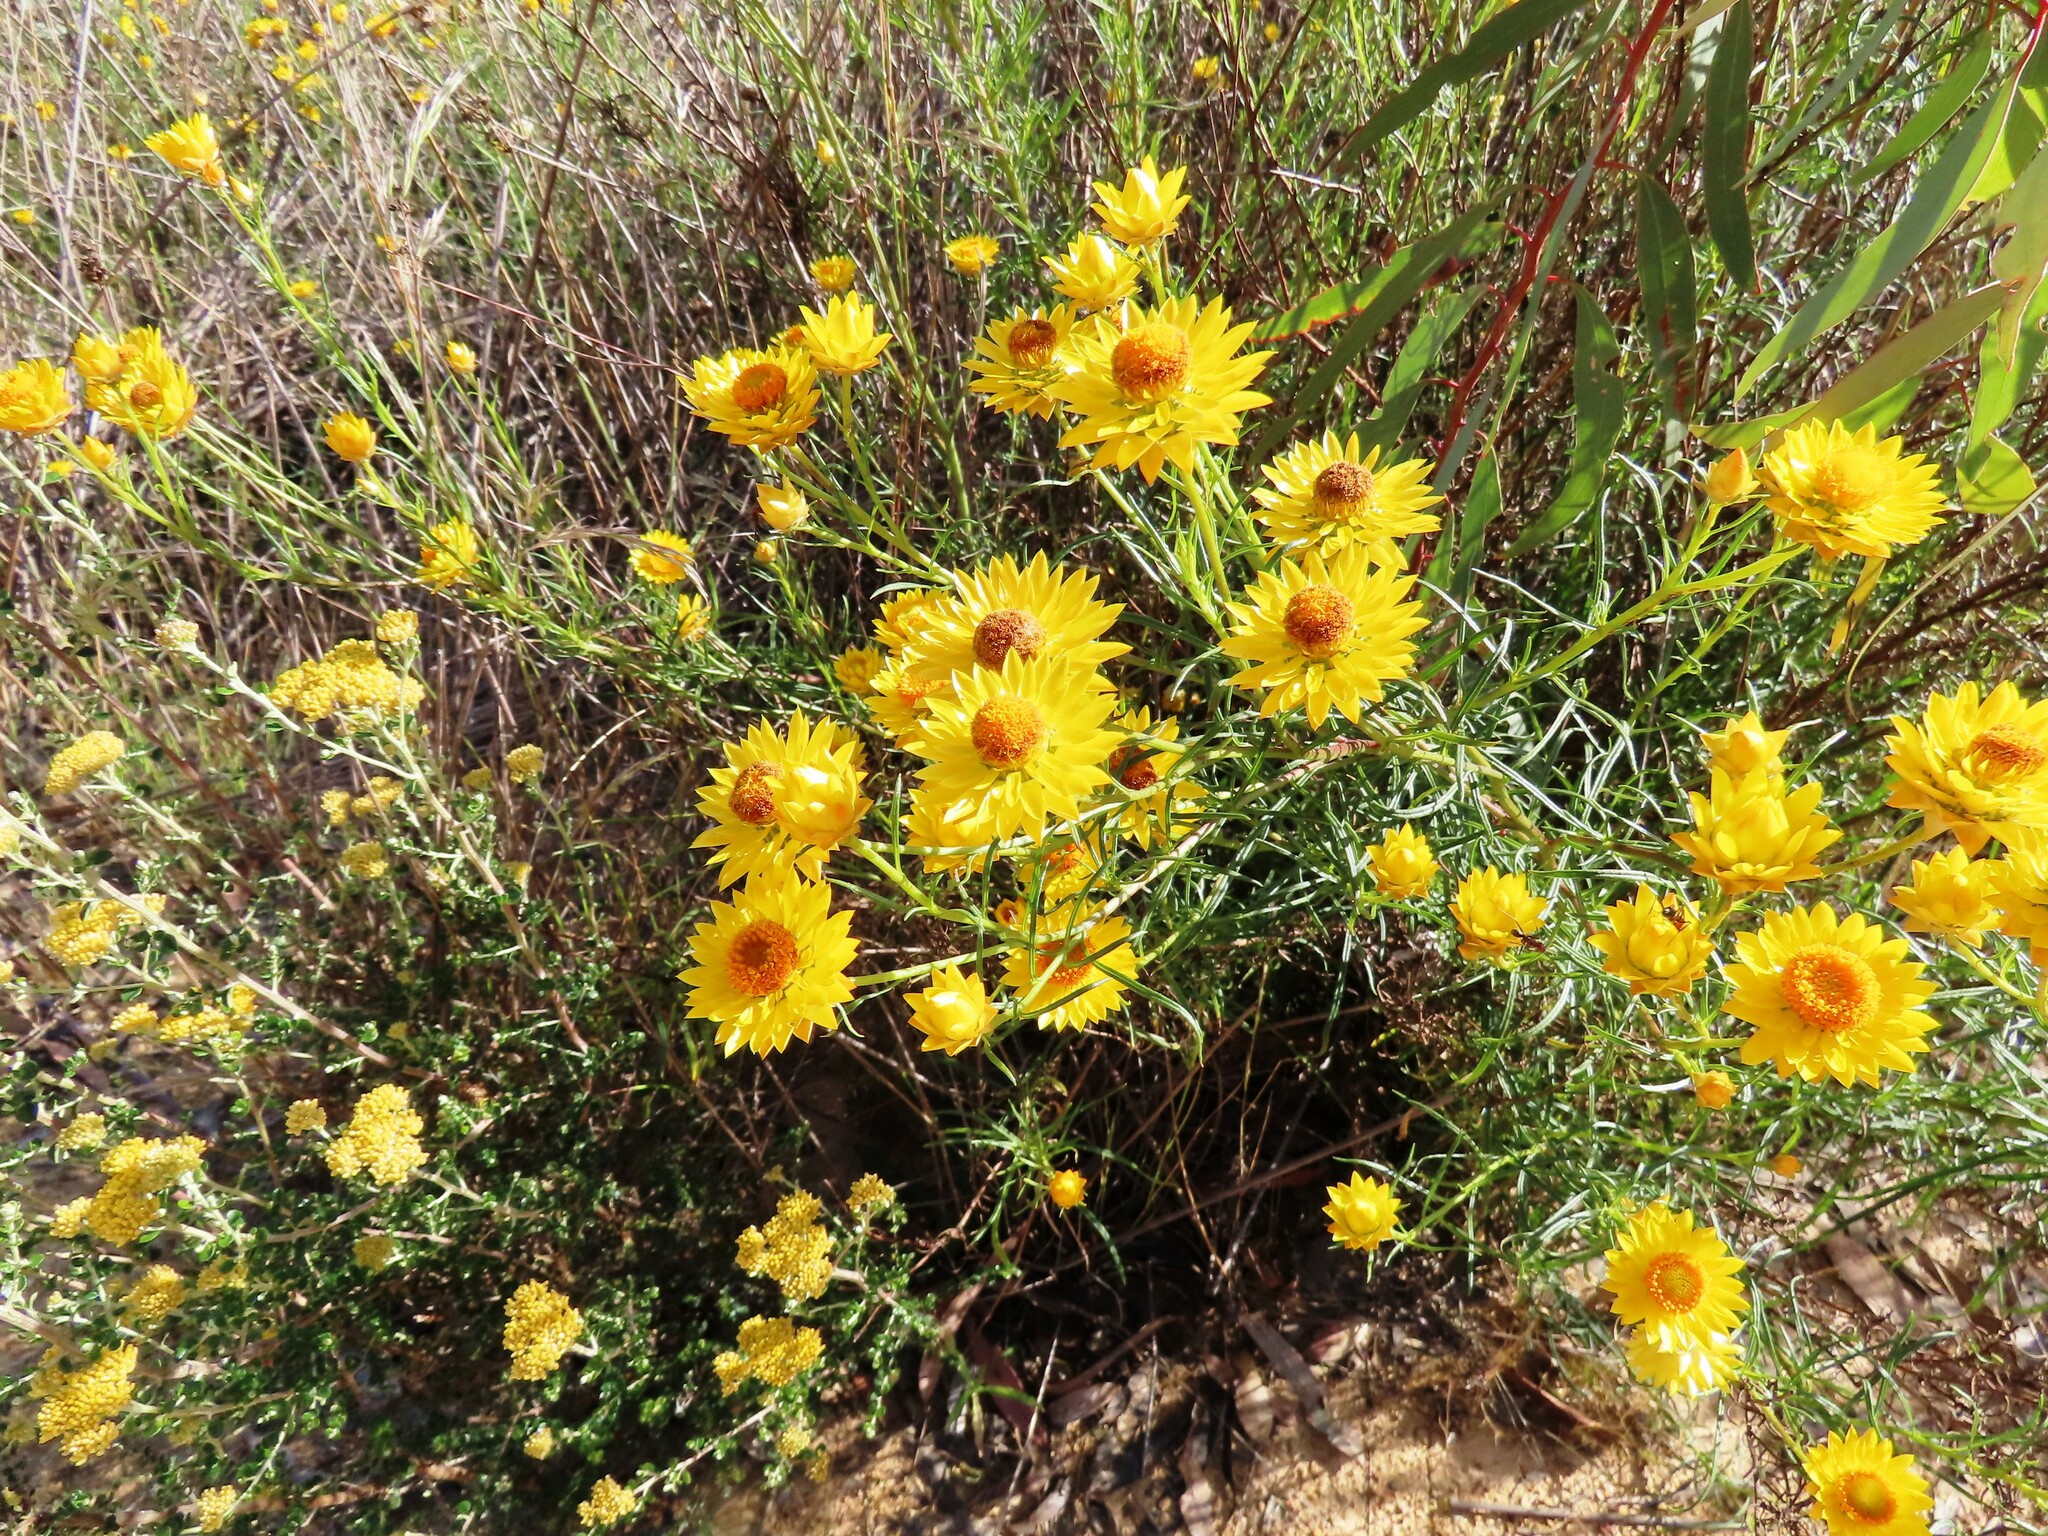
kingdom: Plantae
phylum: Tracheophyta
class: Magnoliopsida
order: Asterales
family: Asteraceae
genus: Xerochrysum
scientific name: Xerochrysum viscosum
